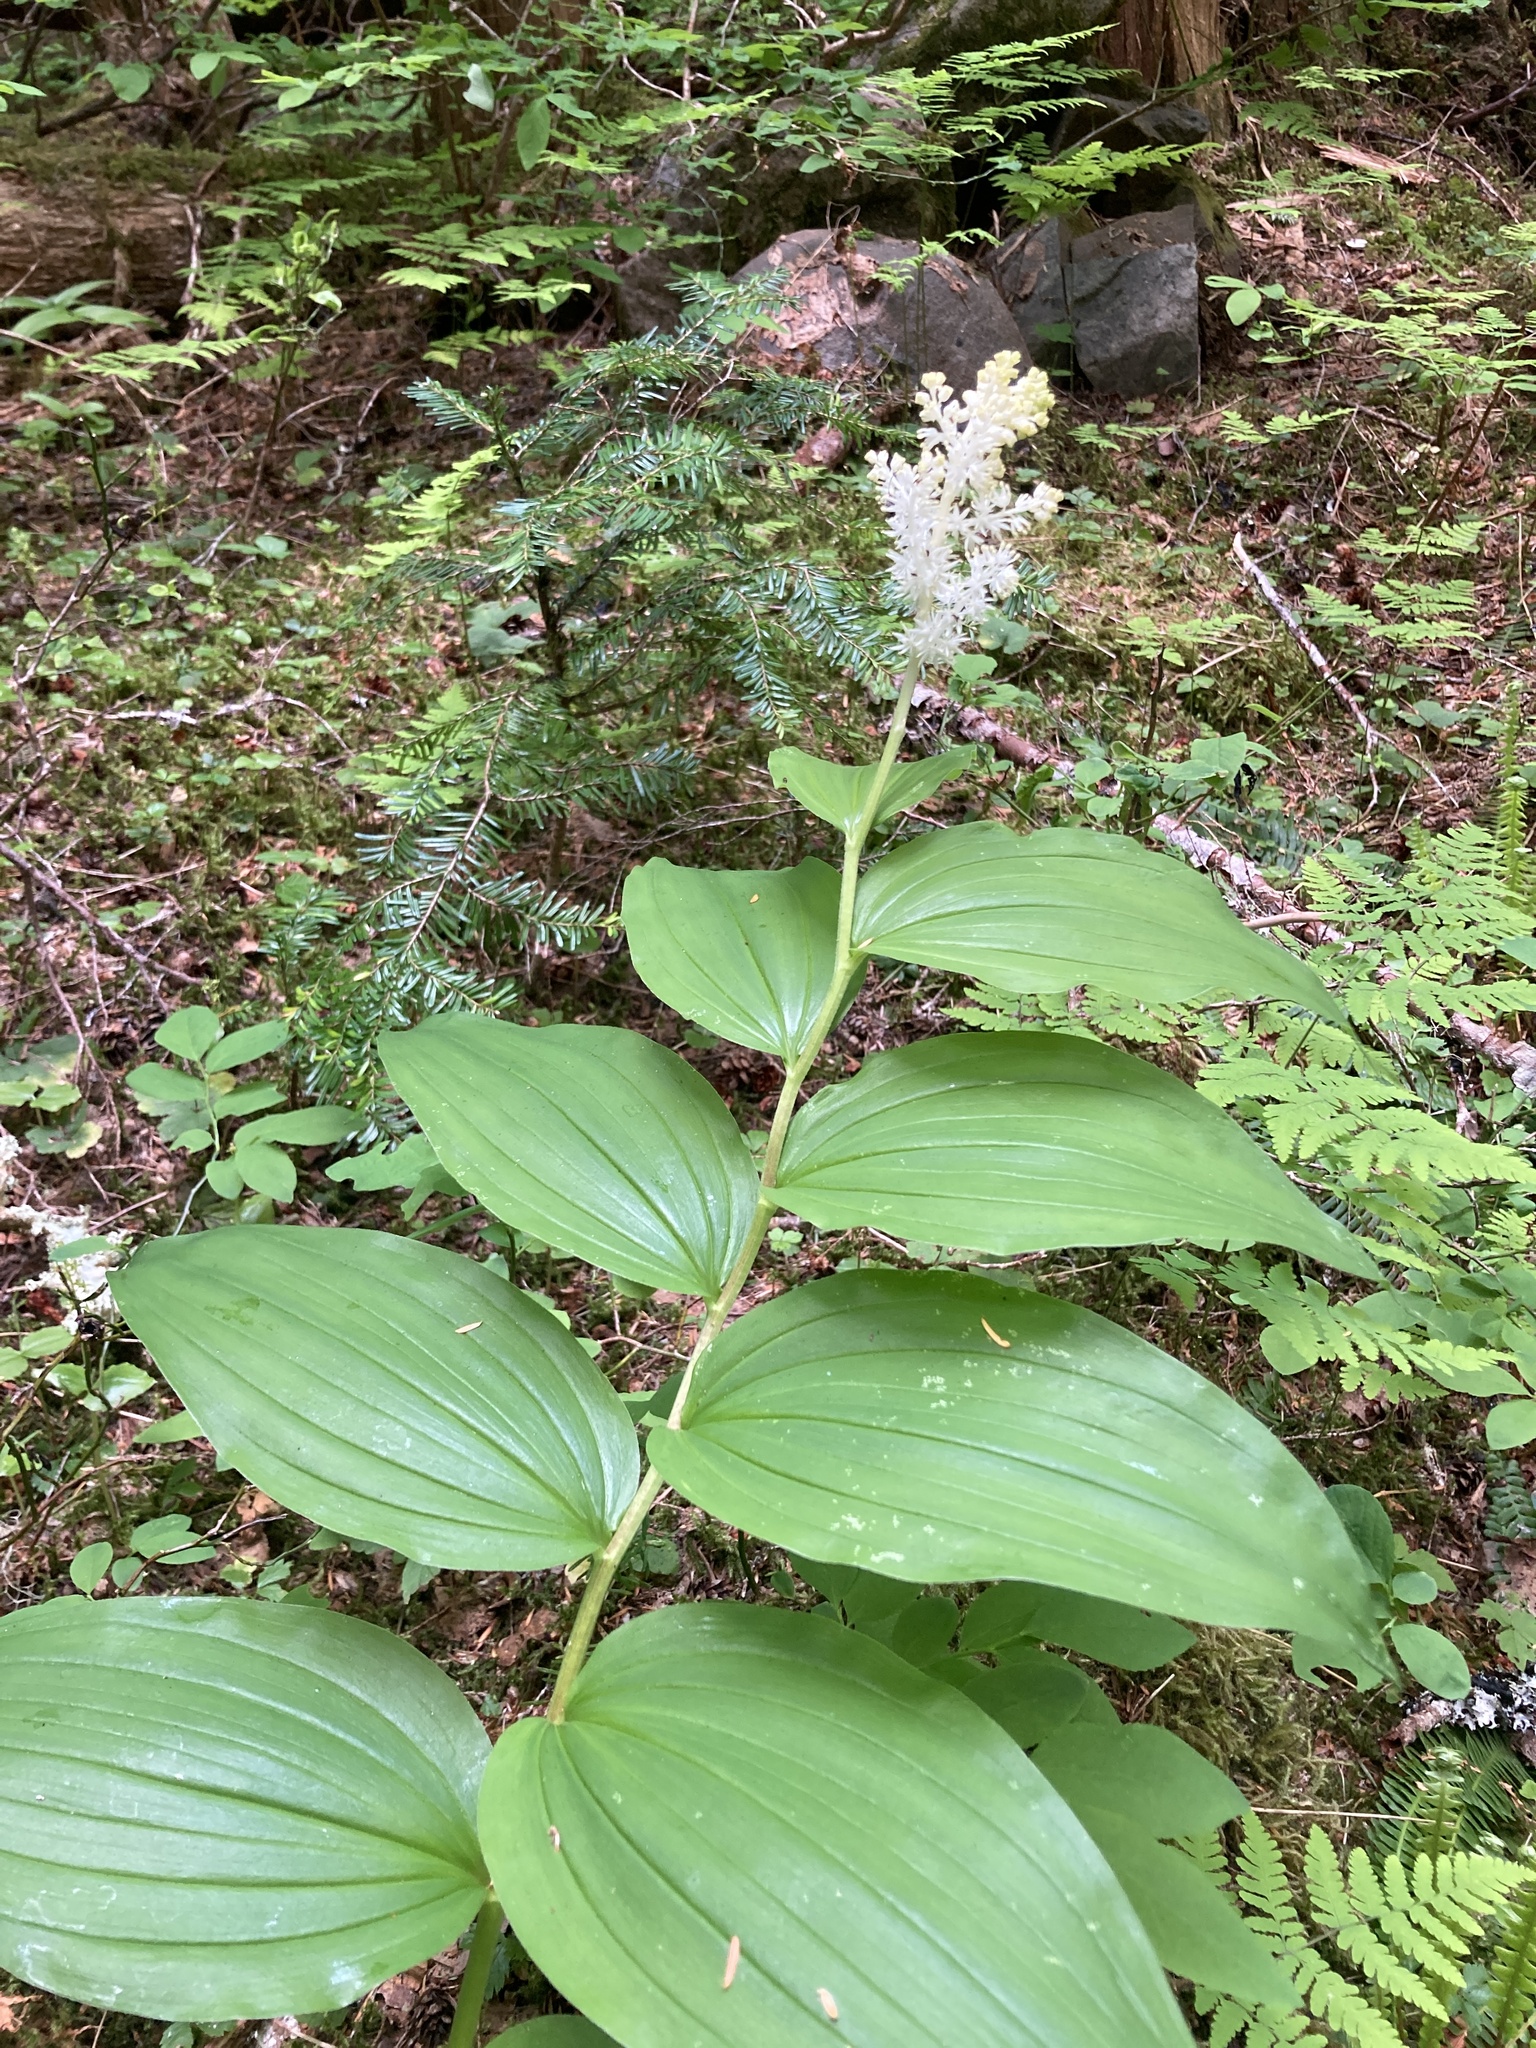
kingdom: Plantae
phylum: Tracheophyta
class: Liliopsida
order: Asparagales
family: Asparagaceae
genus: Maianthemum
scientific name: Maianthemum racemosum
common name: False spikenard
